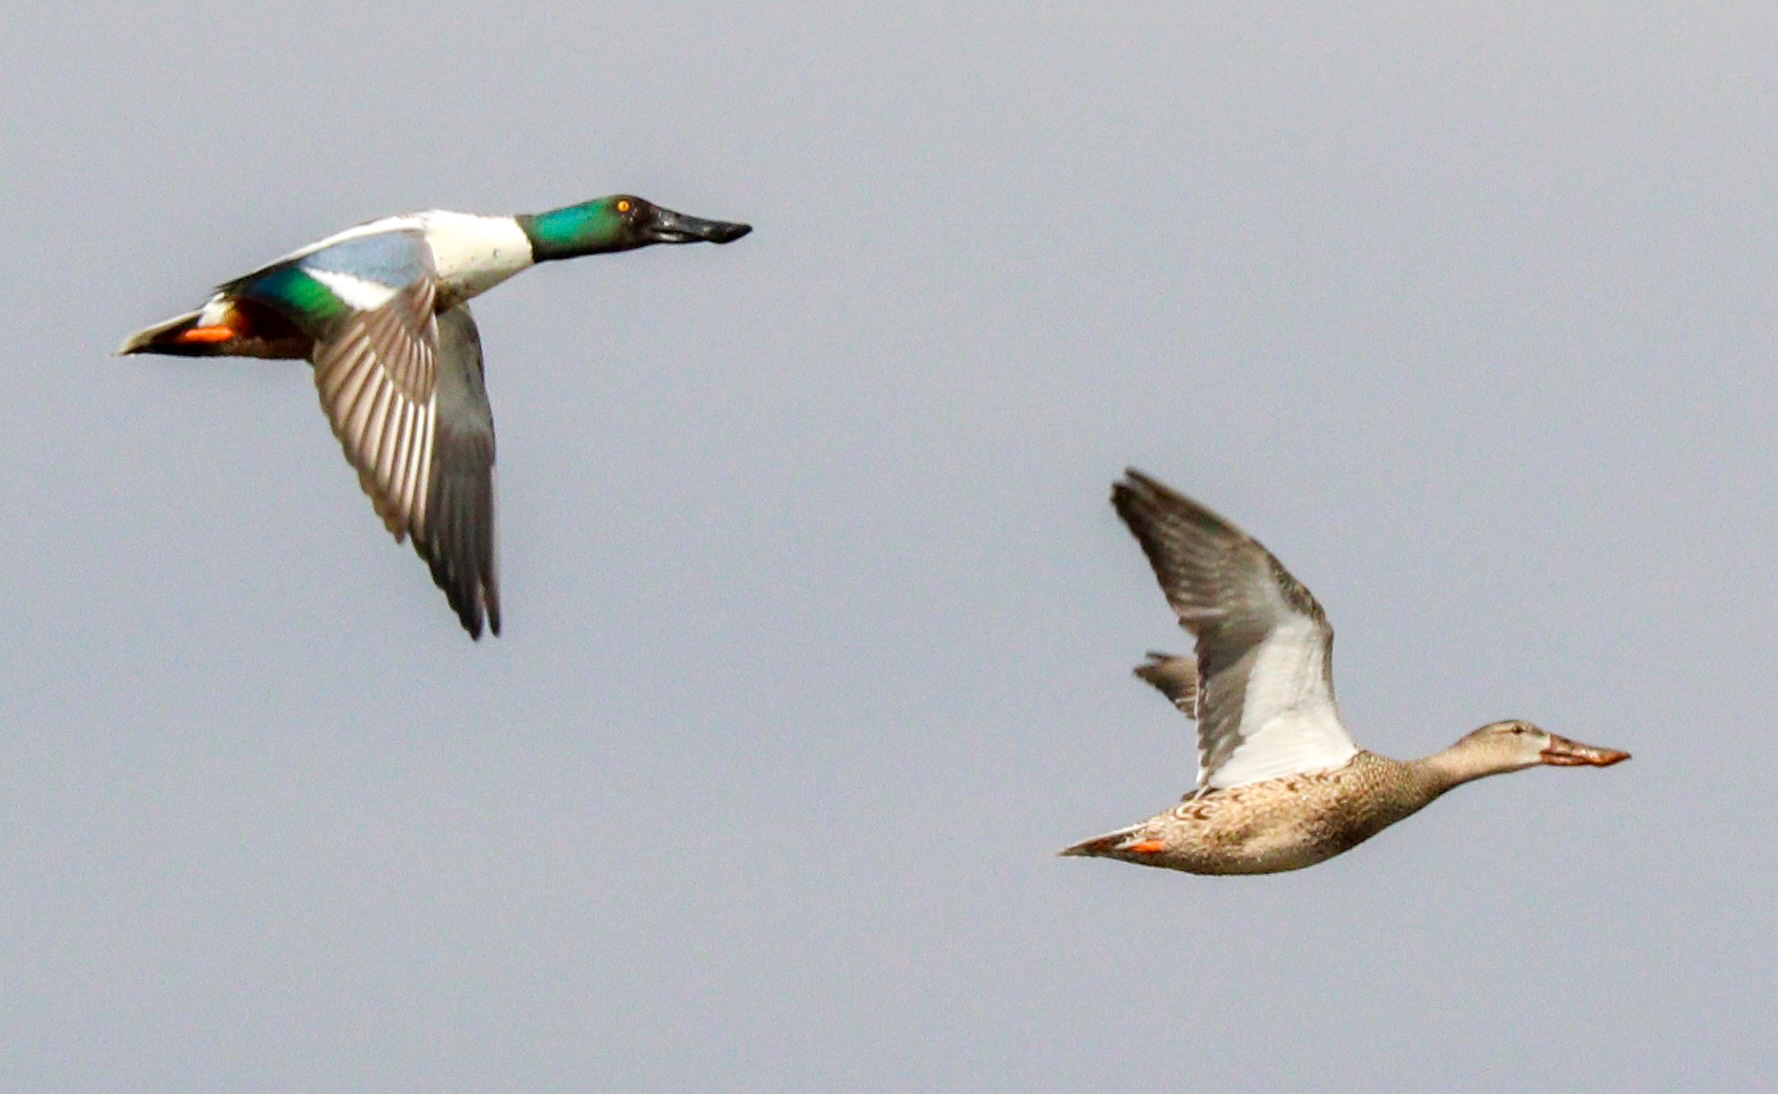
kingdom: Animalia
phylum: Chordata
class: Aves
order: Anseriformes
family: Anatidae
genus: Spatula
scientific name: Spatula clypeata
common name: Northern shoveler
